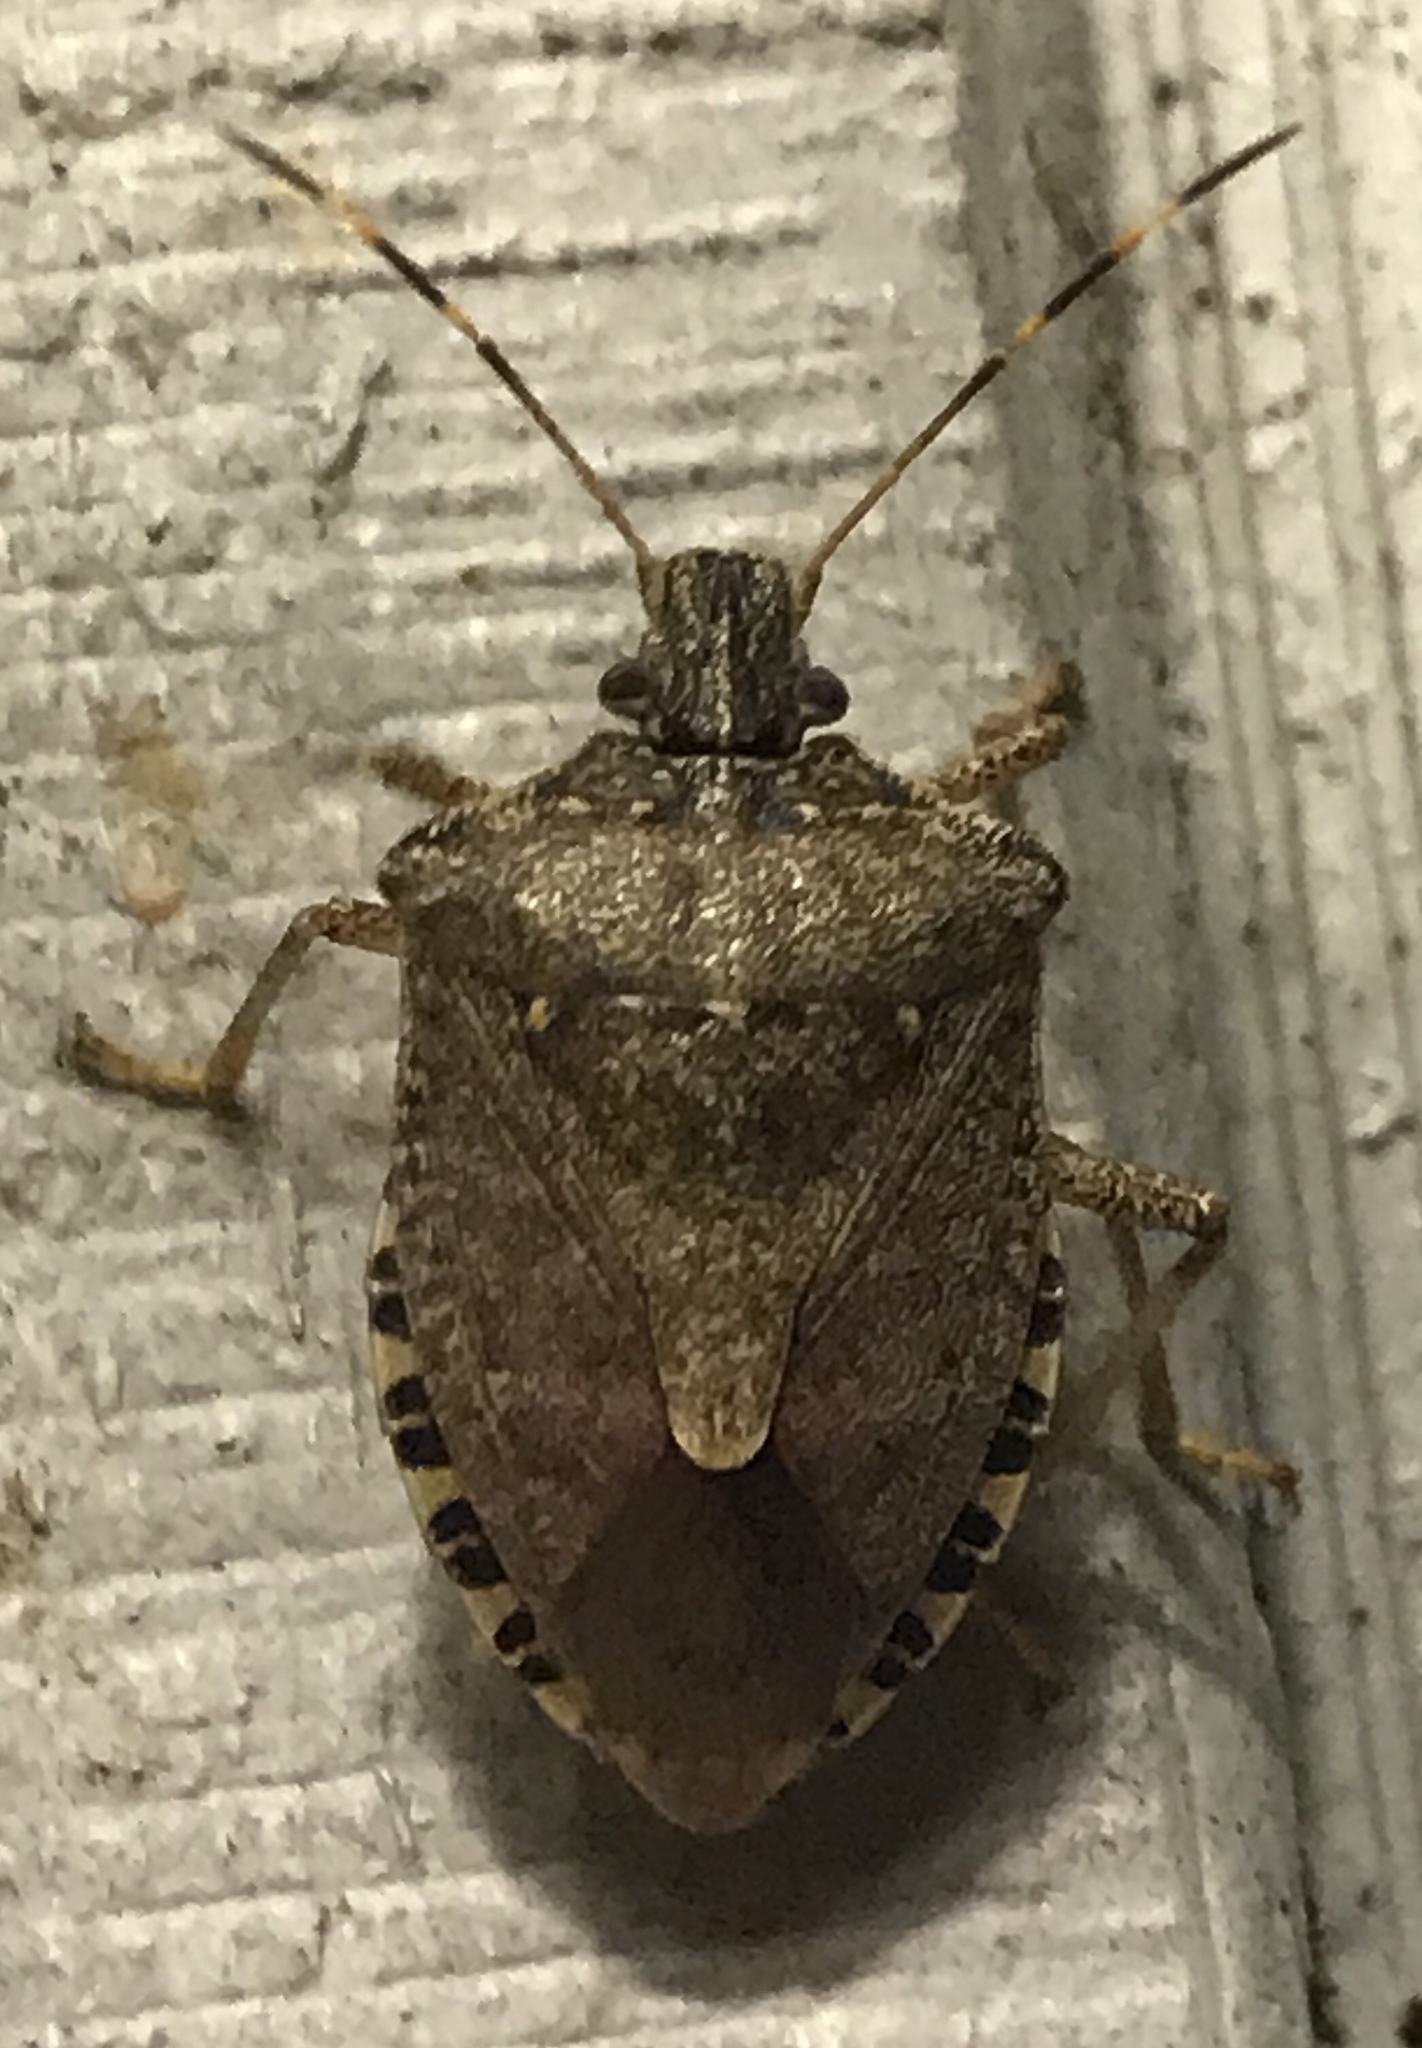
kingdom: Animalia
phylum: Arthropoda
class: Insecta
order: Hemiptera
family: Pentatomidae
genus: Halyomorpha
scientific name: Halyomorpha halys
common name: Brown marmorated stink bug
